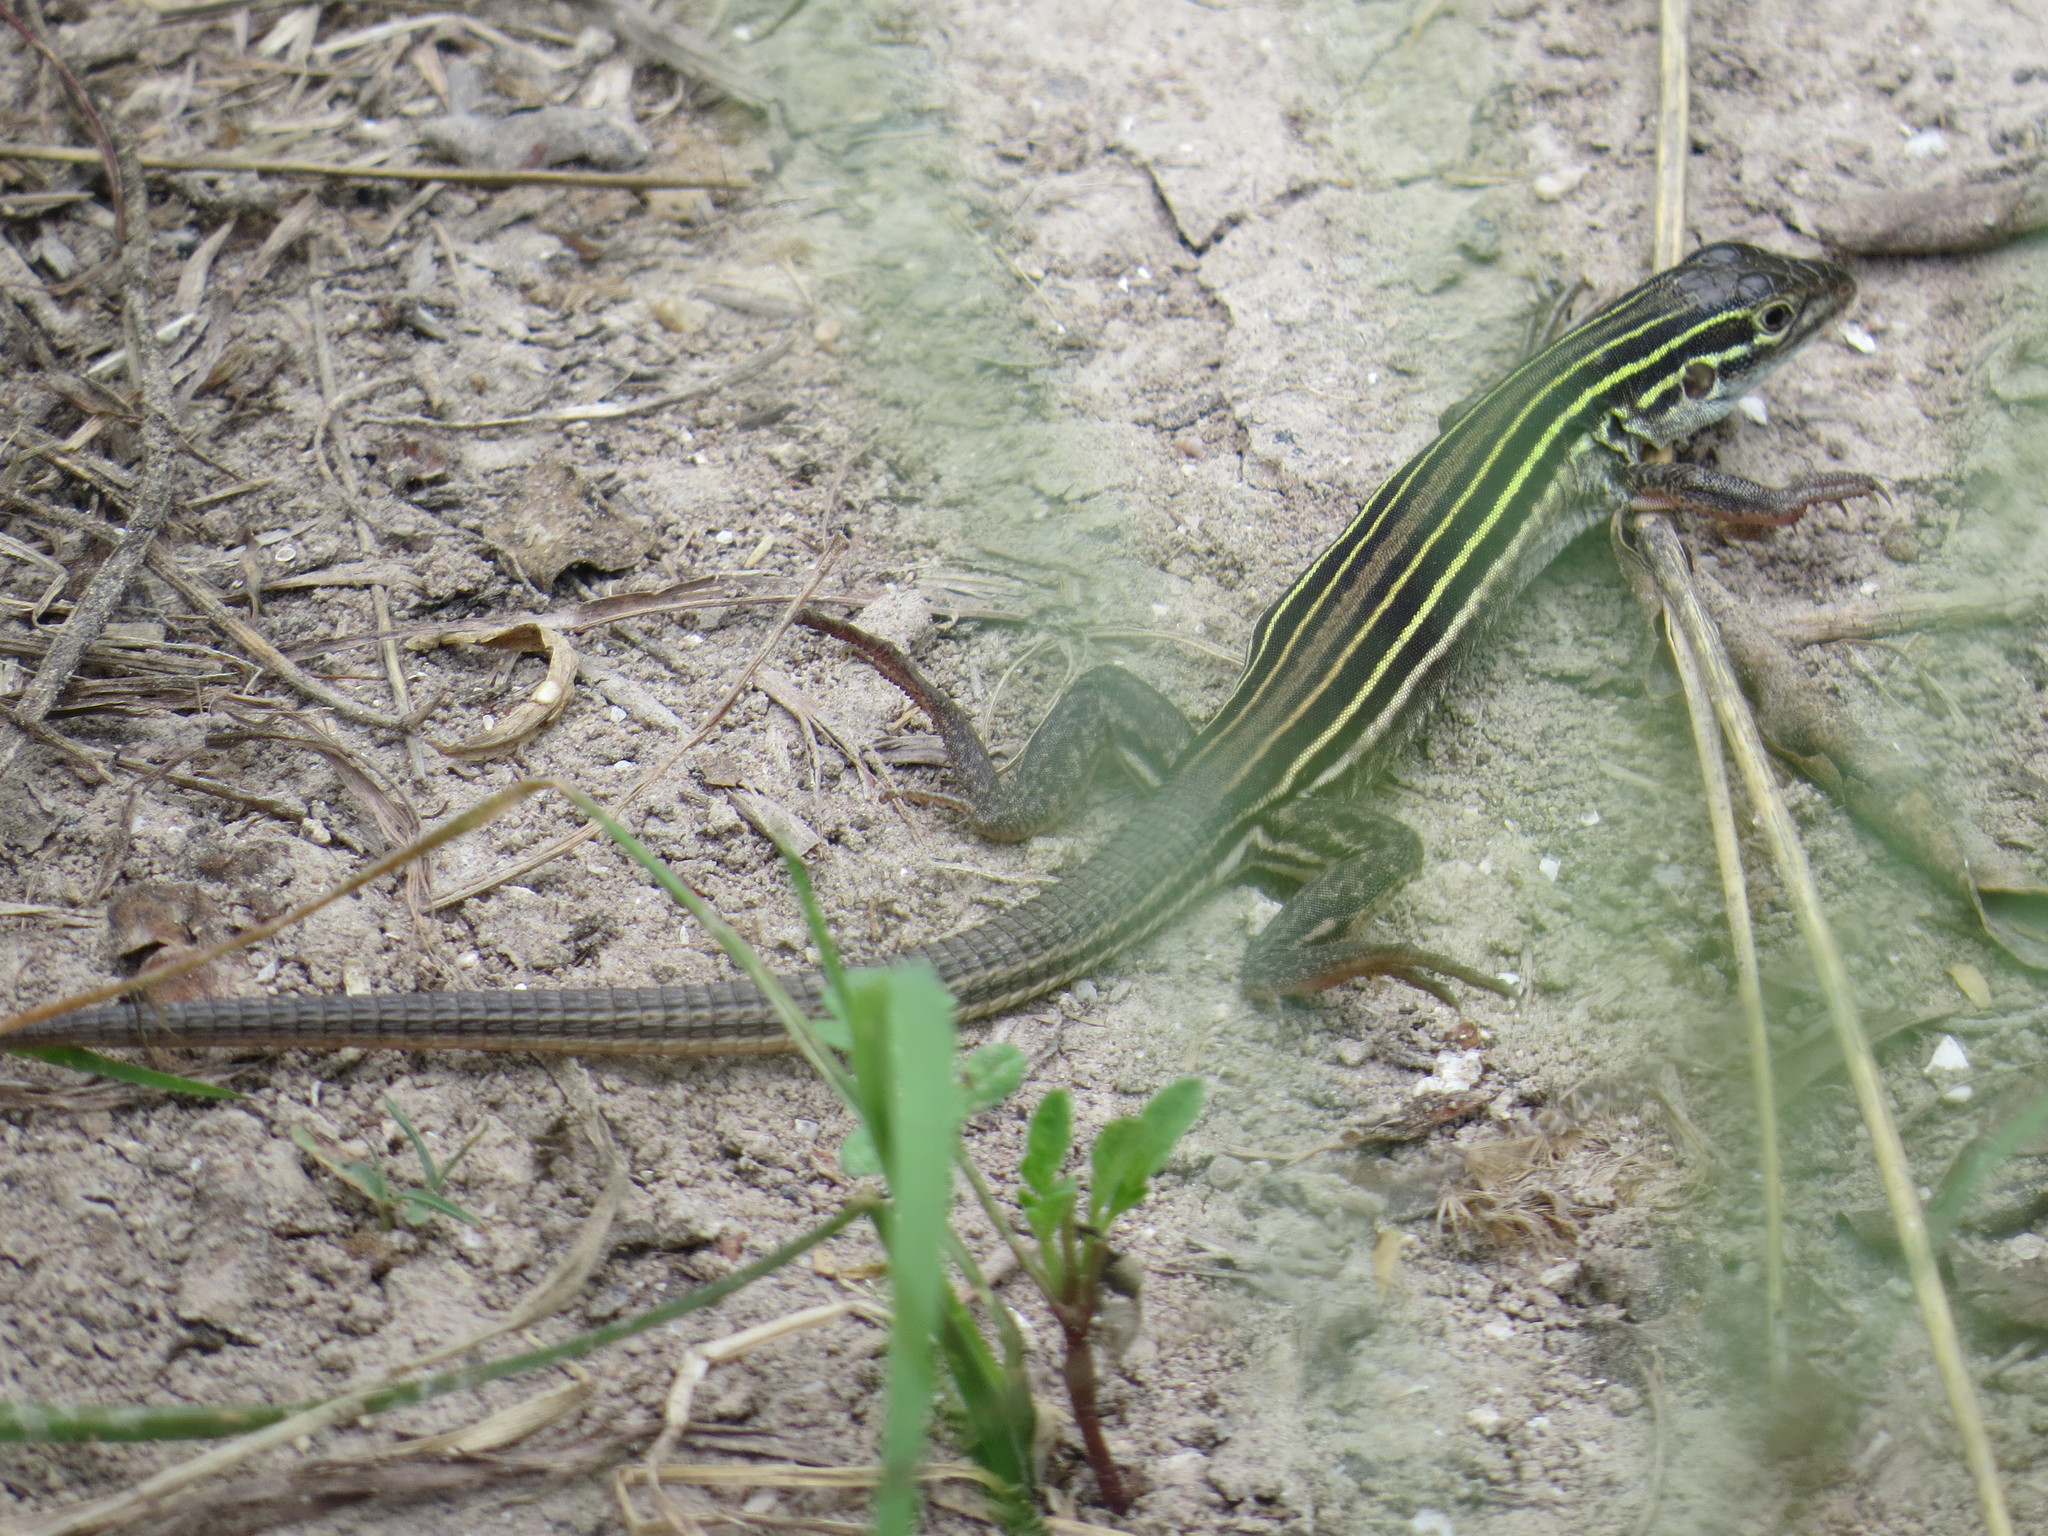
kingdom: Animalia
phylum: Chordata
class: Squamata
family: Teiidae
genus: Aspidoscelis
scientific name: Aspidoscelis sexlineatus
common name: Six-lined racerunner
